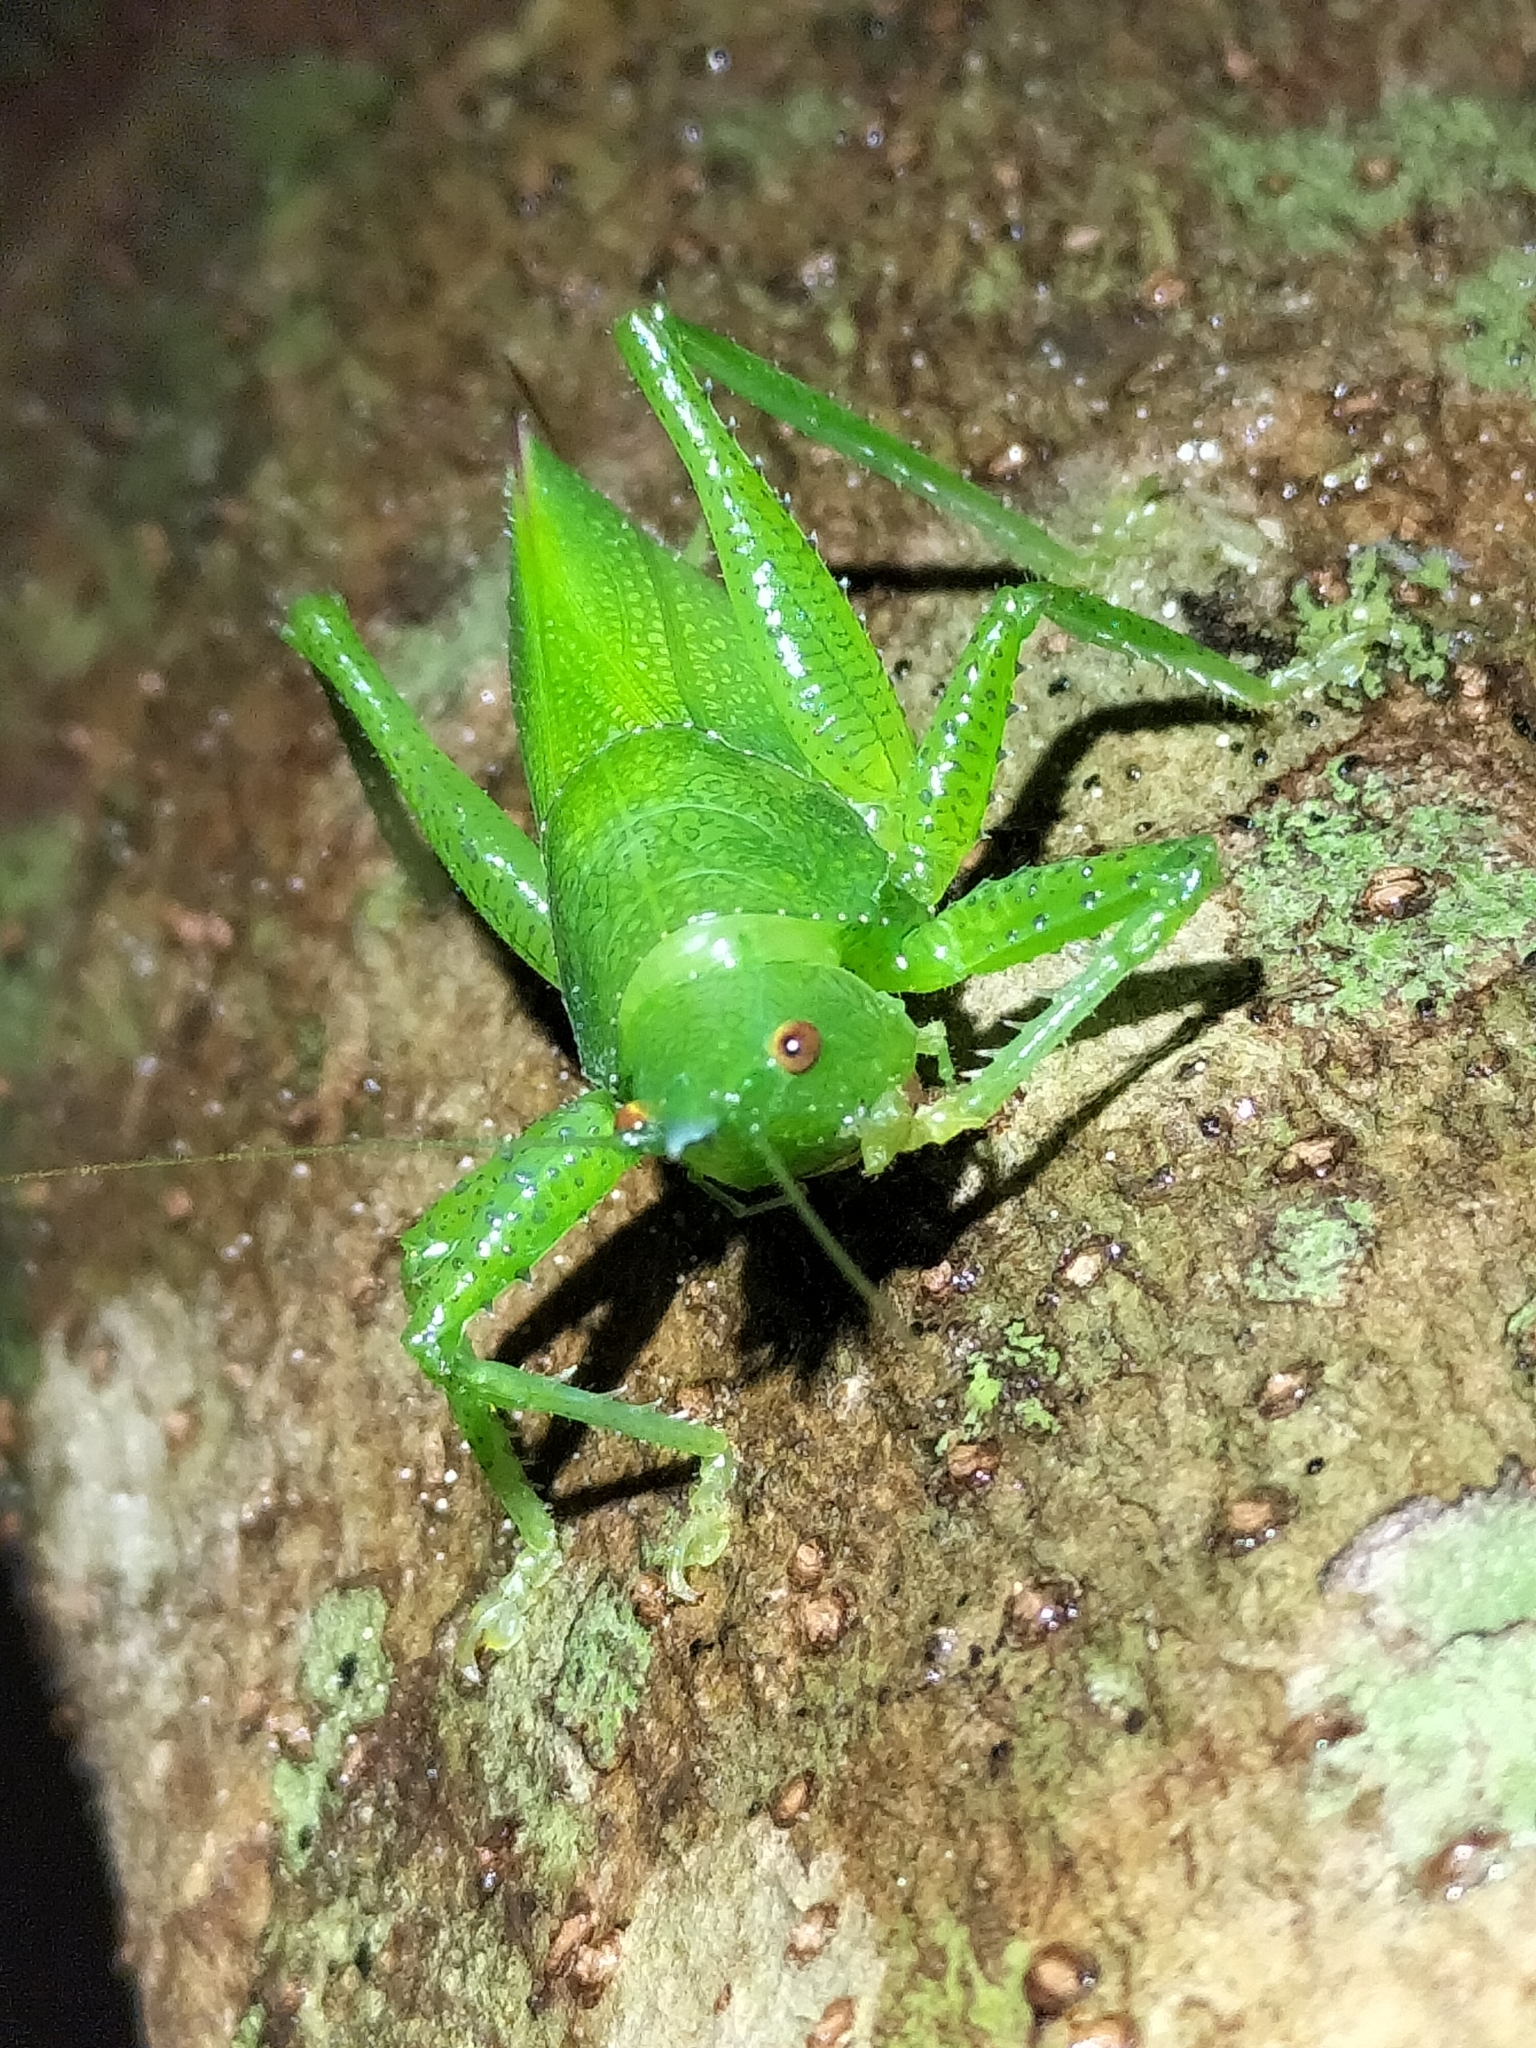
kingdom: Animalia
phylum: Arthropoda
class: Insecta
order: Orthoptera
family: Tettigoniidae
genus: Emeraldagraecia
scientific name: Emeraldagraecia munggarifrons
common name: Pink-faced emerald
